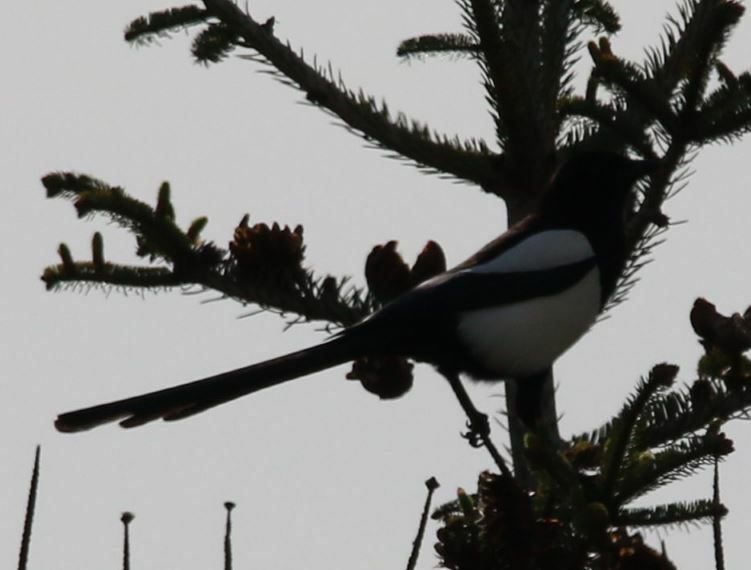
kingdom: Animalia
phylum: Chordata
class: Aves
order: Passeriformes
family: Corvidae
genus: Pica
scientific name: Pica pica
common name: Eurasian magpie
